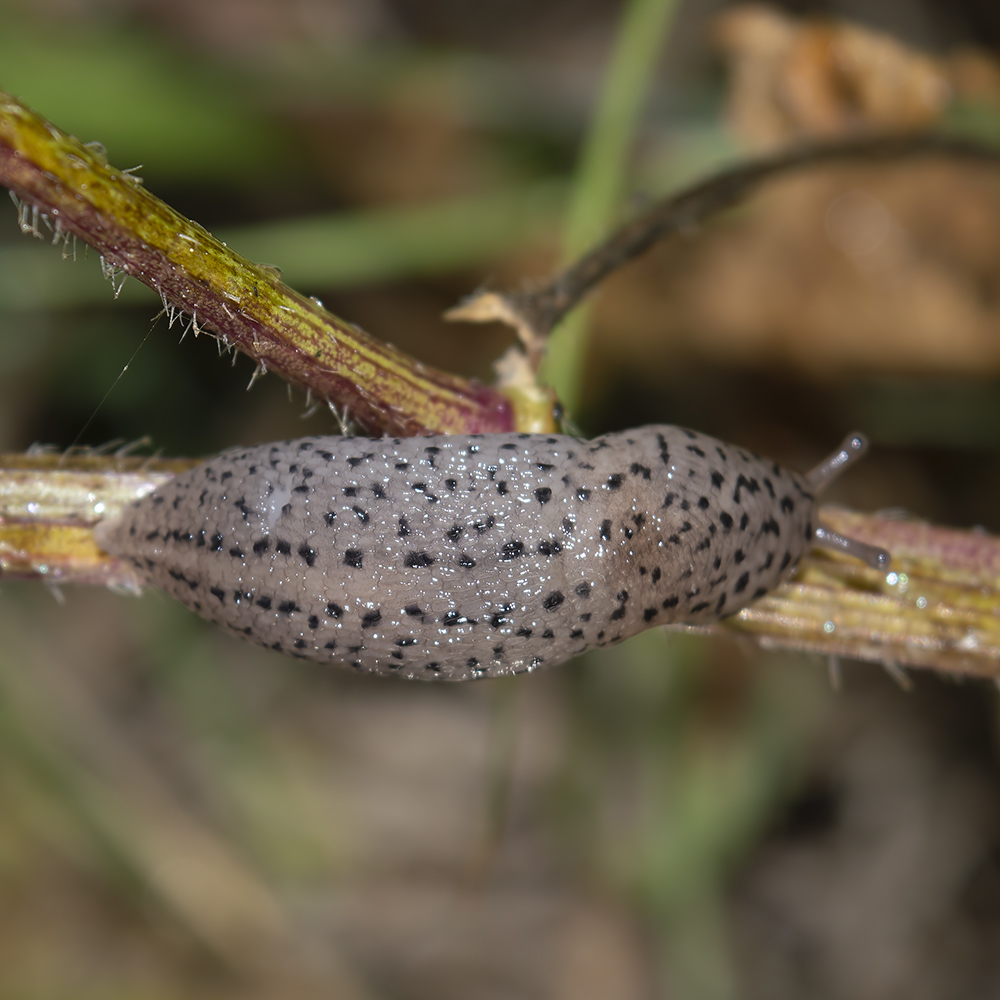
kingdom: Animalia
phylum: Mollusca
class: Gastropoda
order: Stylommatophora
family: Limacidae
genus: Limax
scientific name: Limax conemenosi
